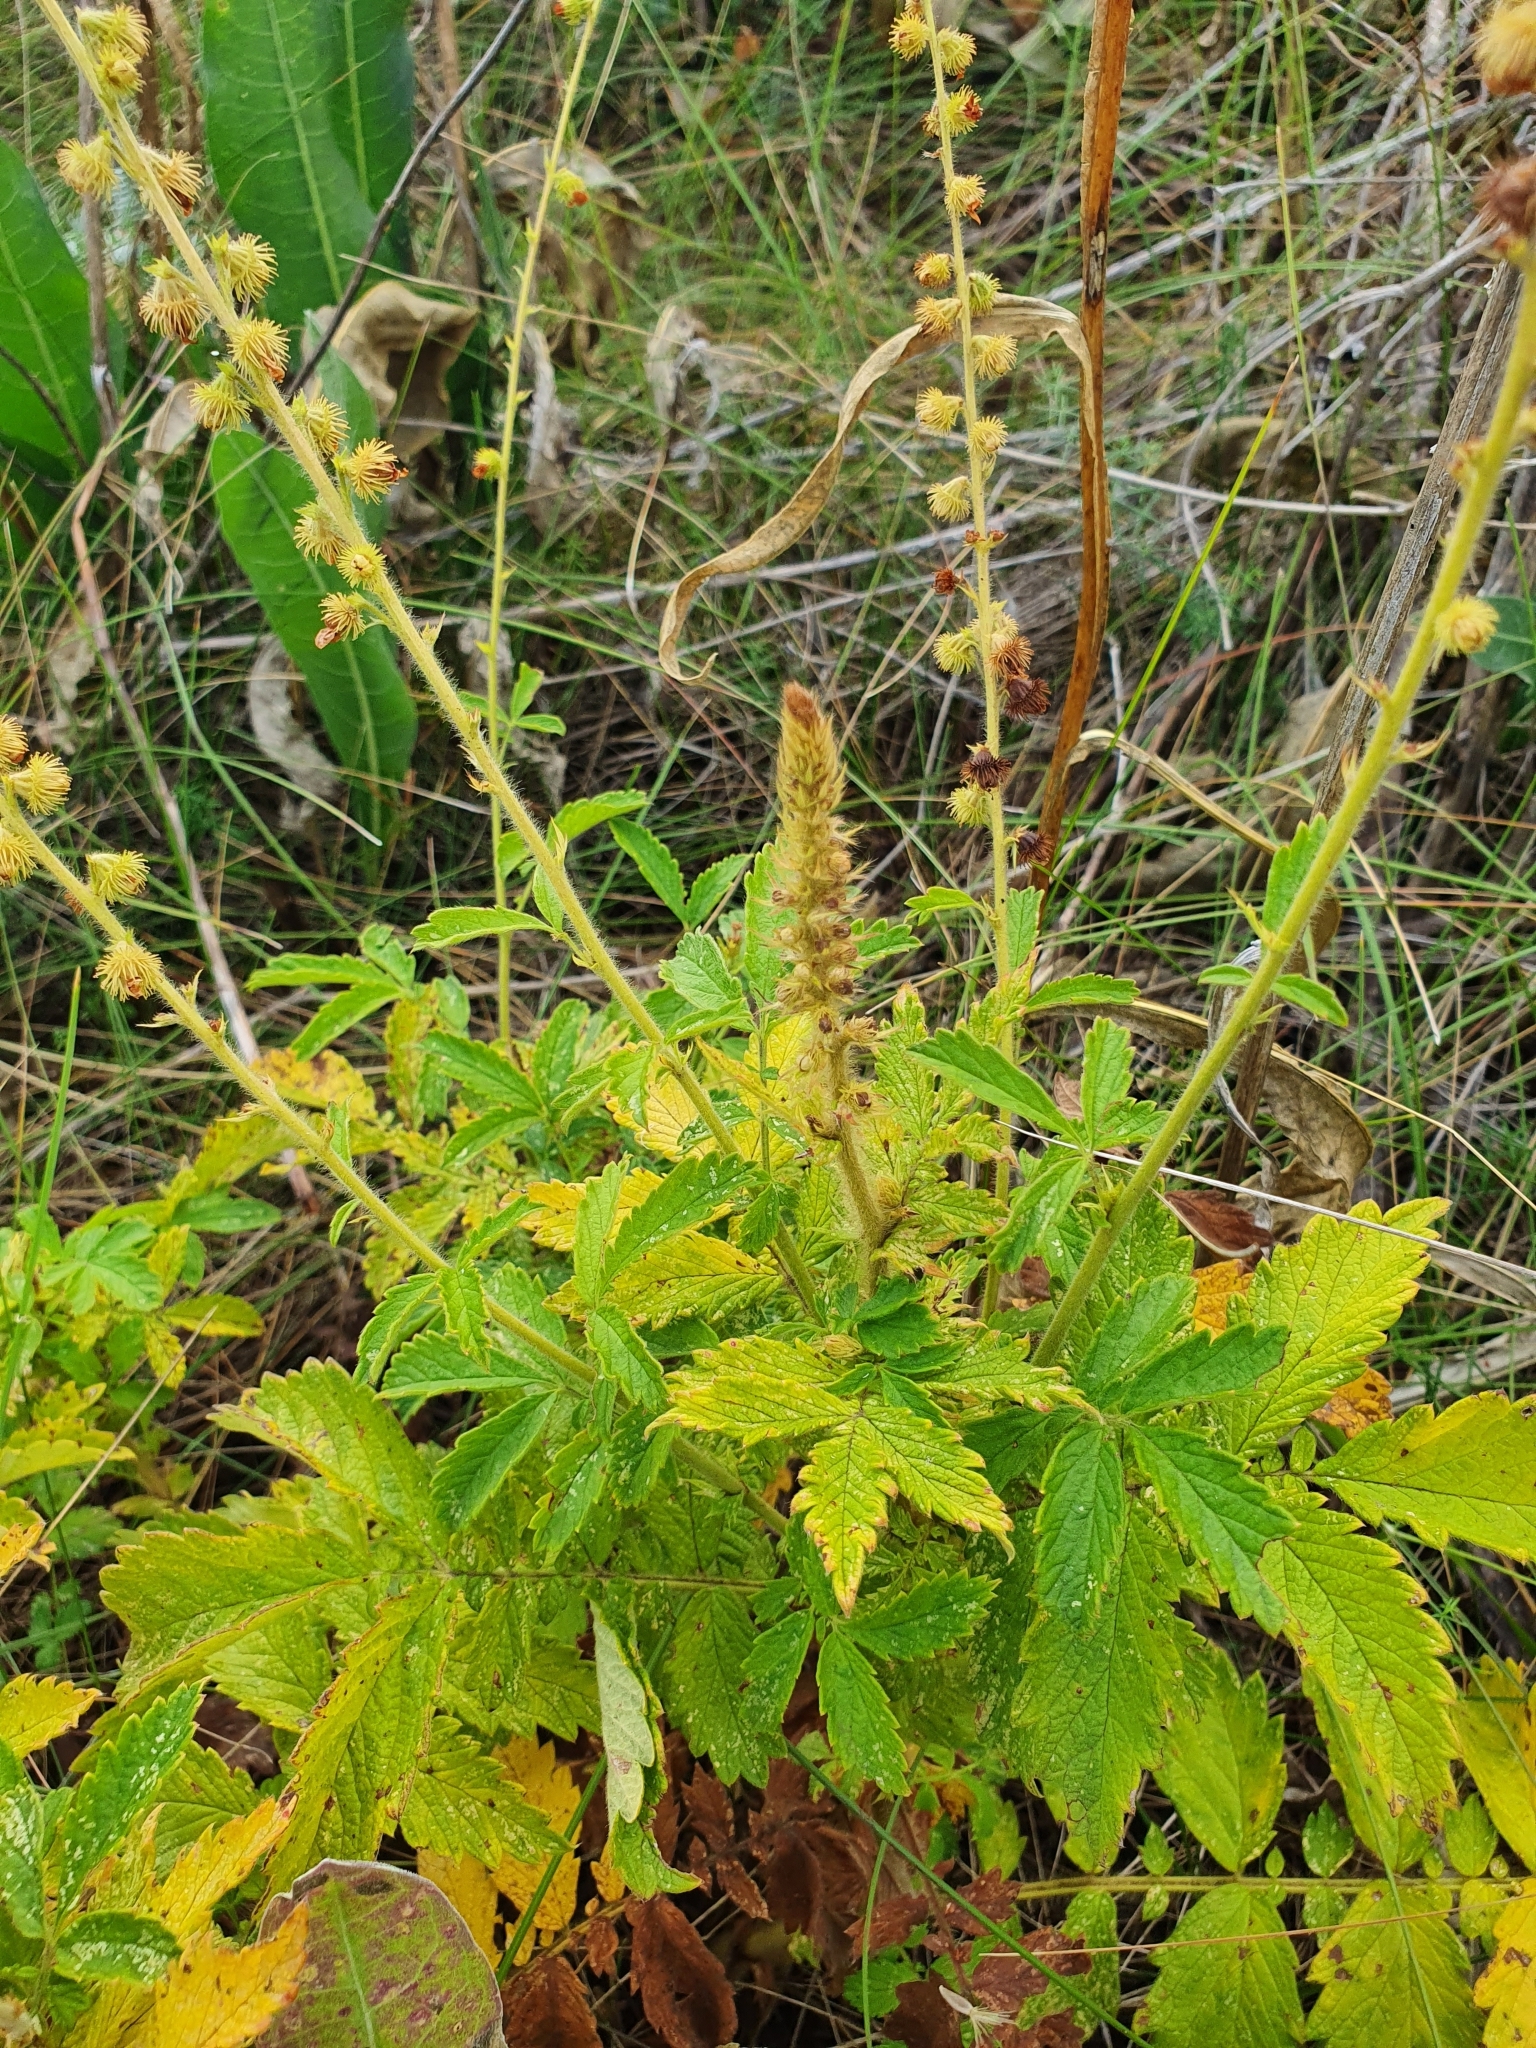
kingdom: Plantae
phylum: Tracheophyta
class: Magnoliopsida
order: Rosales
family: Rosaceae
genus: Agrimonia
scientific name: Agrimonia eupatoria
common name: Agrimony
